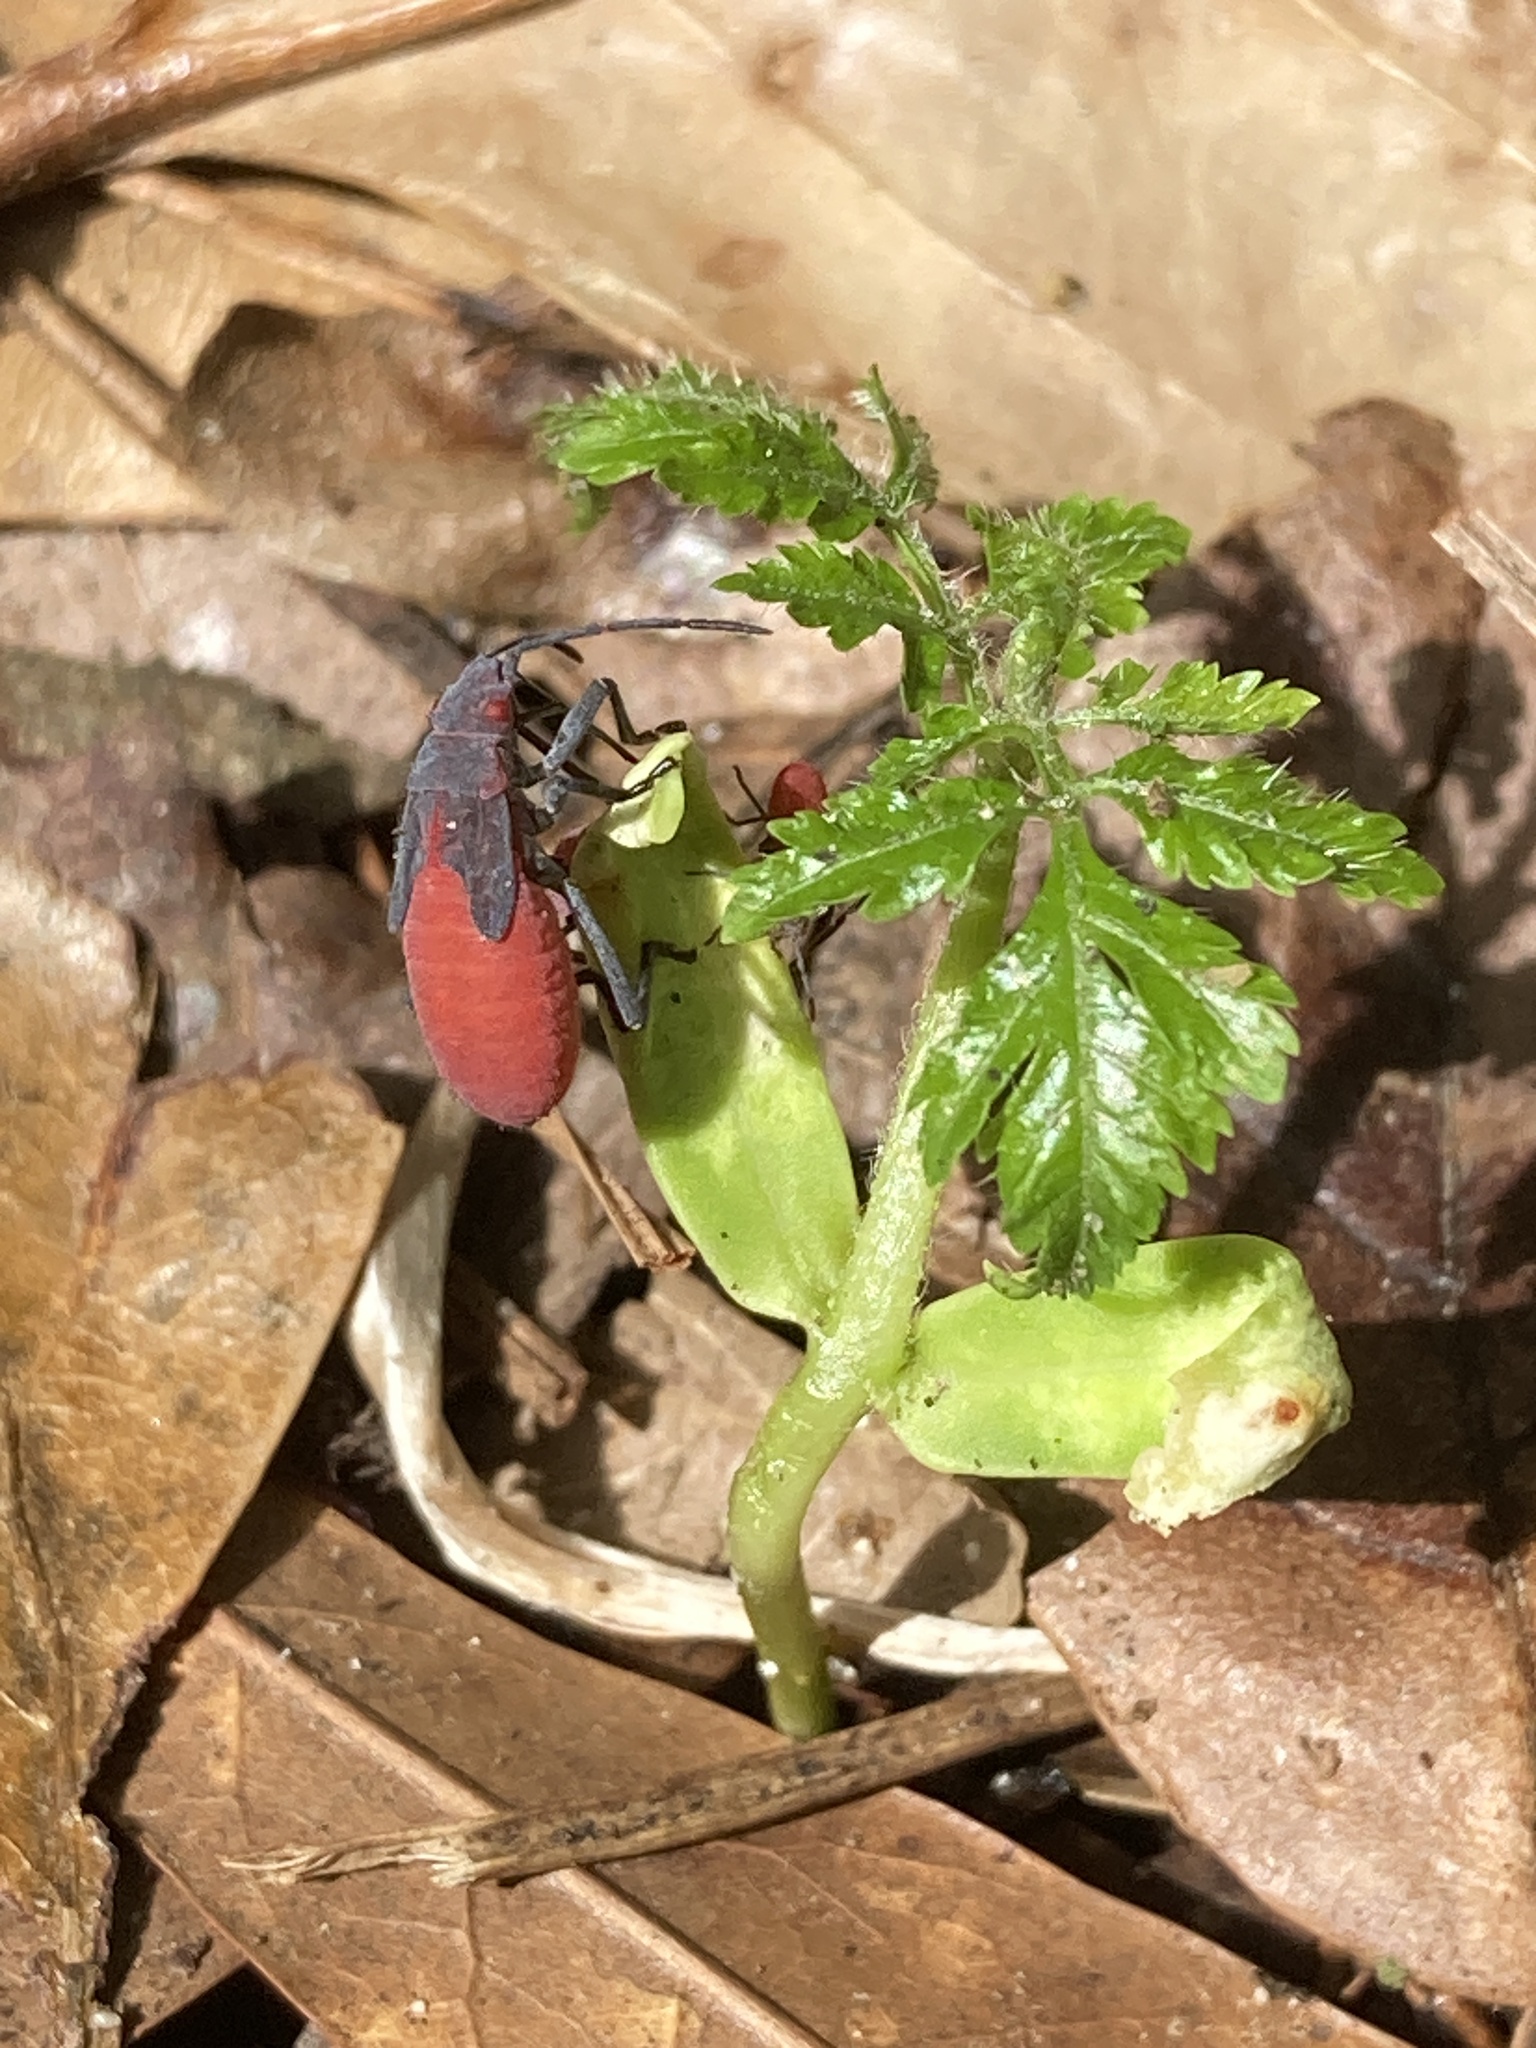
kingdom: Animalia
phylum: Arthropoda
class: Insecta
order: Hemiptera
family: Rhopalidae
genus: Jadera
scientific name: Jadera haematoloma
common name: Red-shouldered bug
